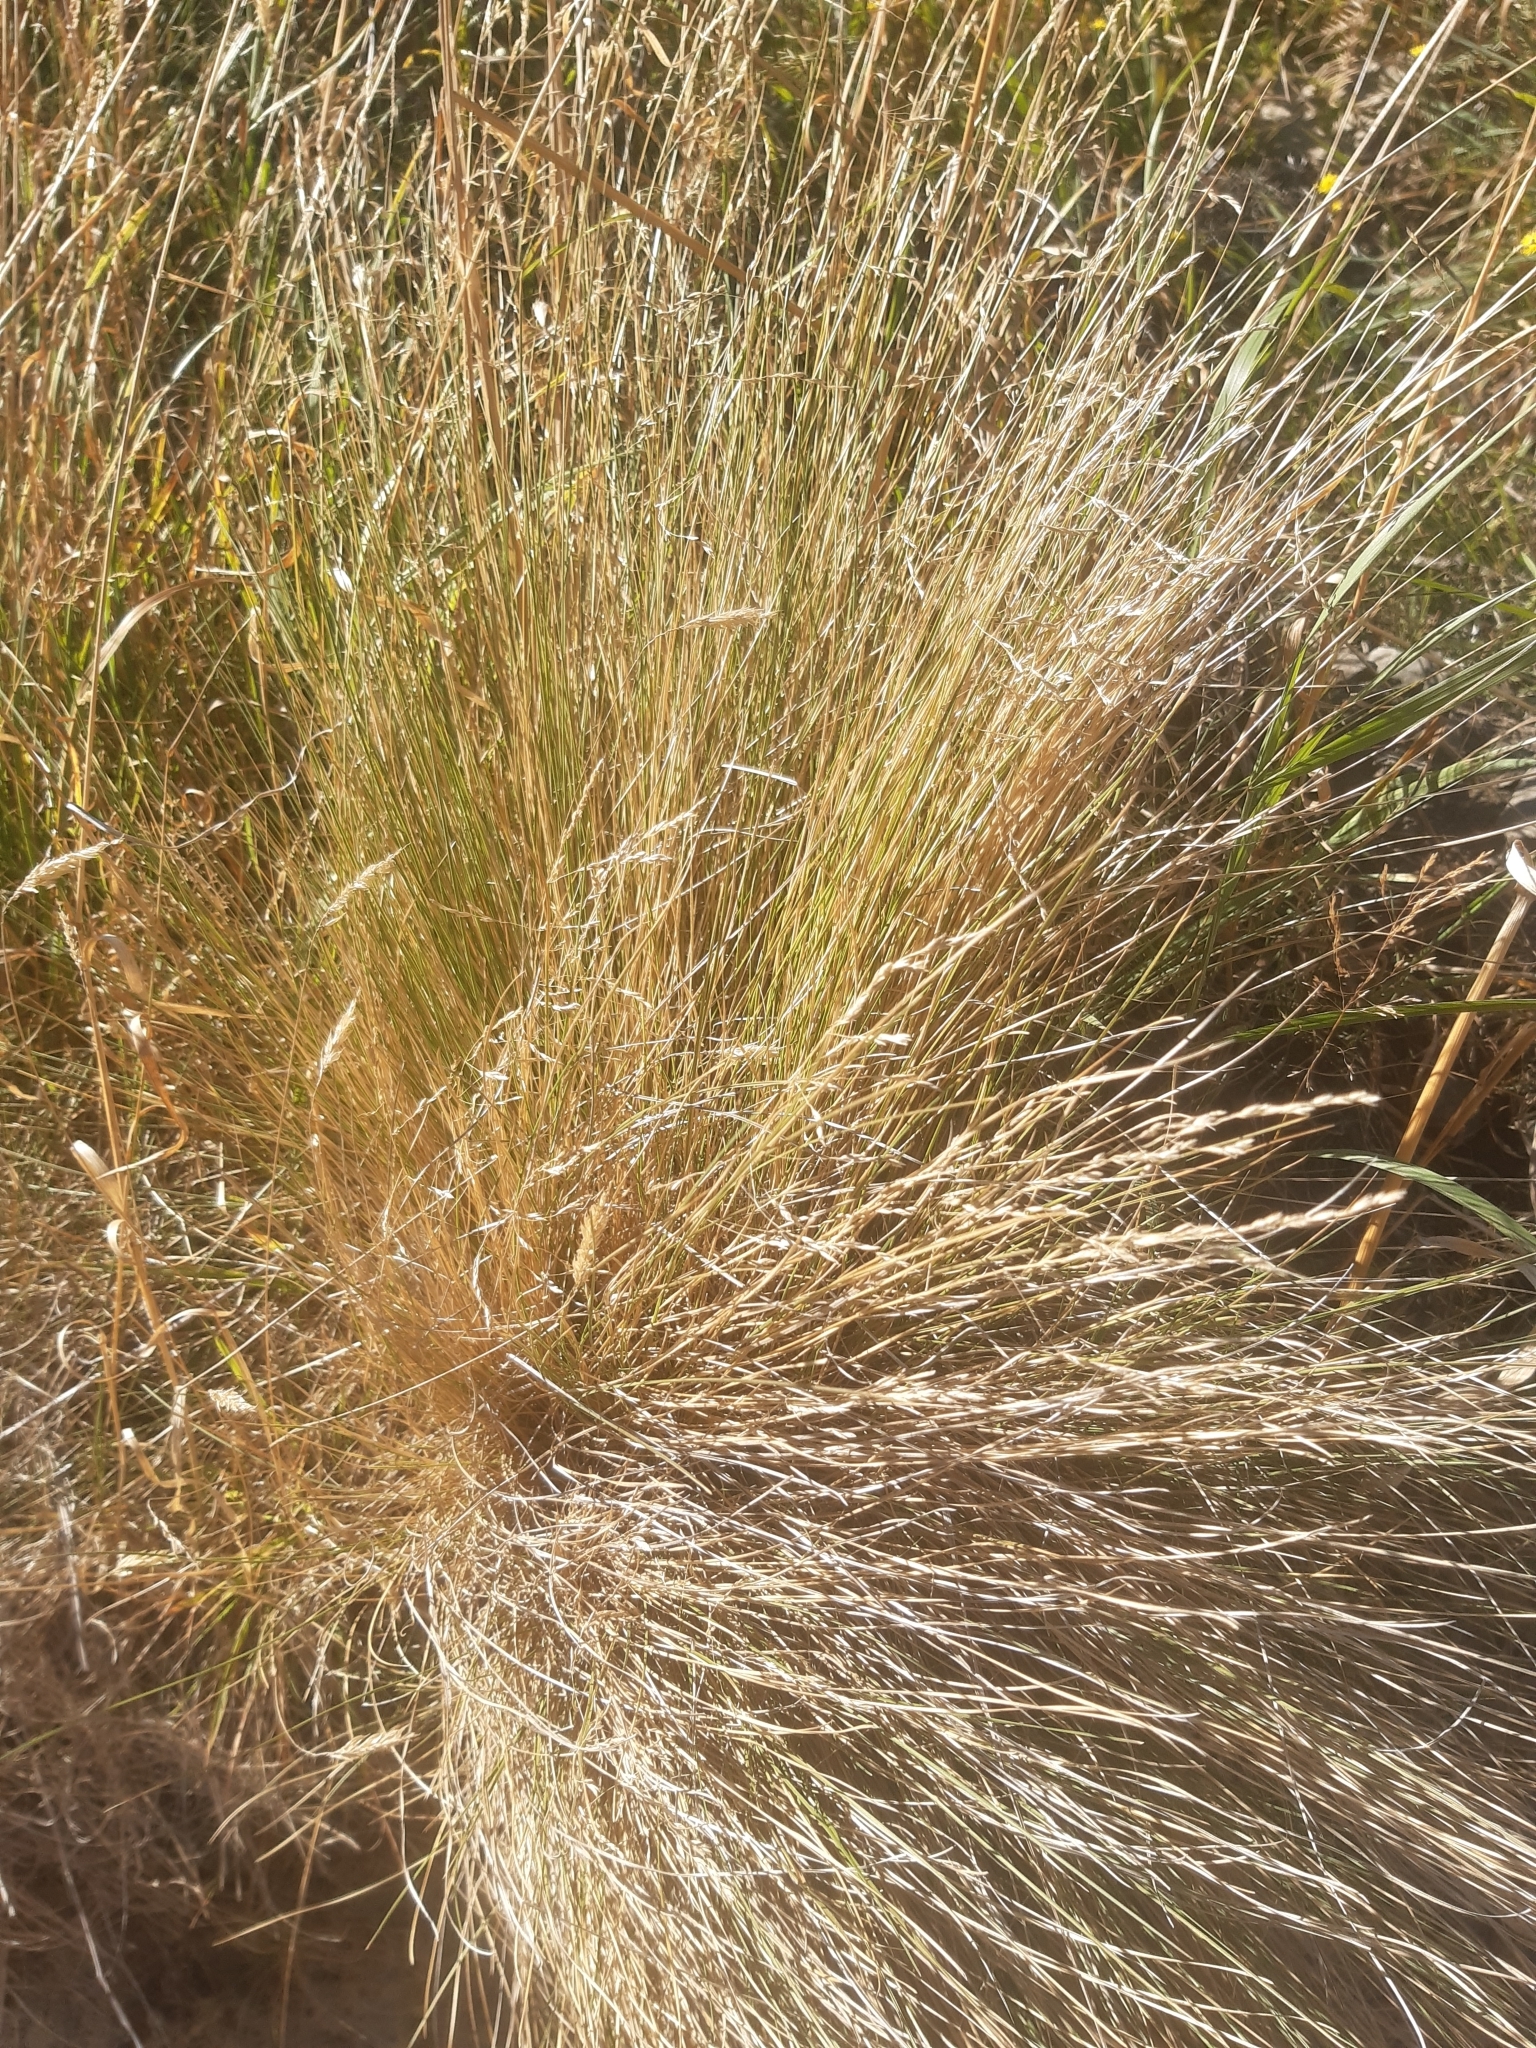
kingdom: Plantae
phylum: Tracheophyta
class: Liliopsida
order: Poales
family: Poaceae
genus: Poa
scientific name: Poa cita
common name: Silver tussock
